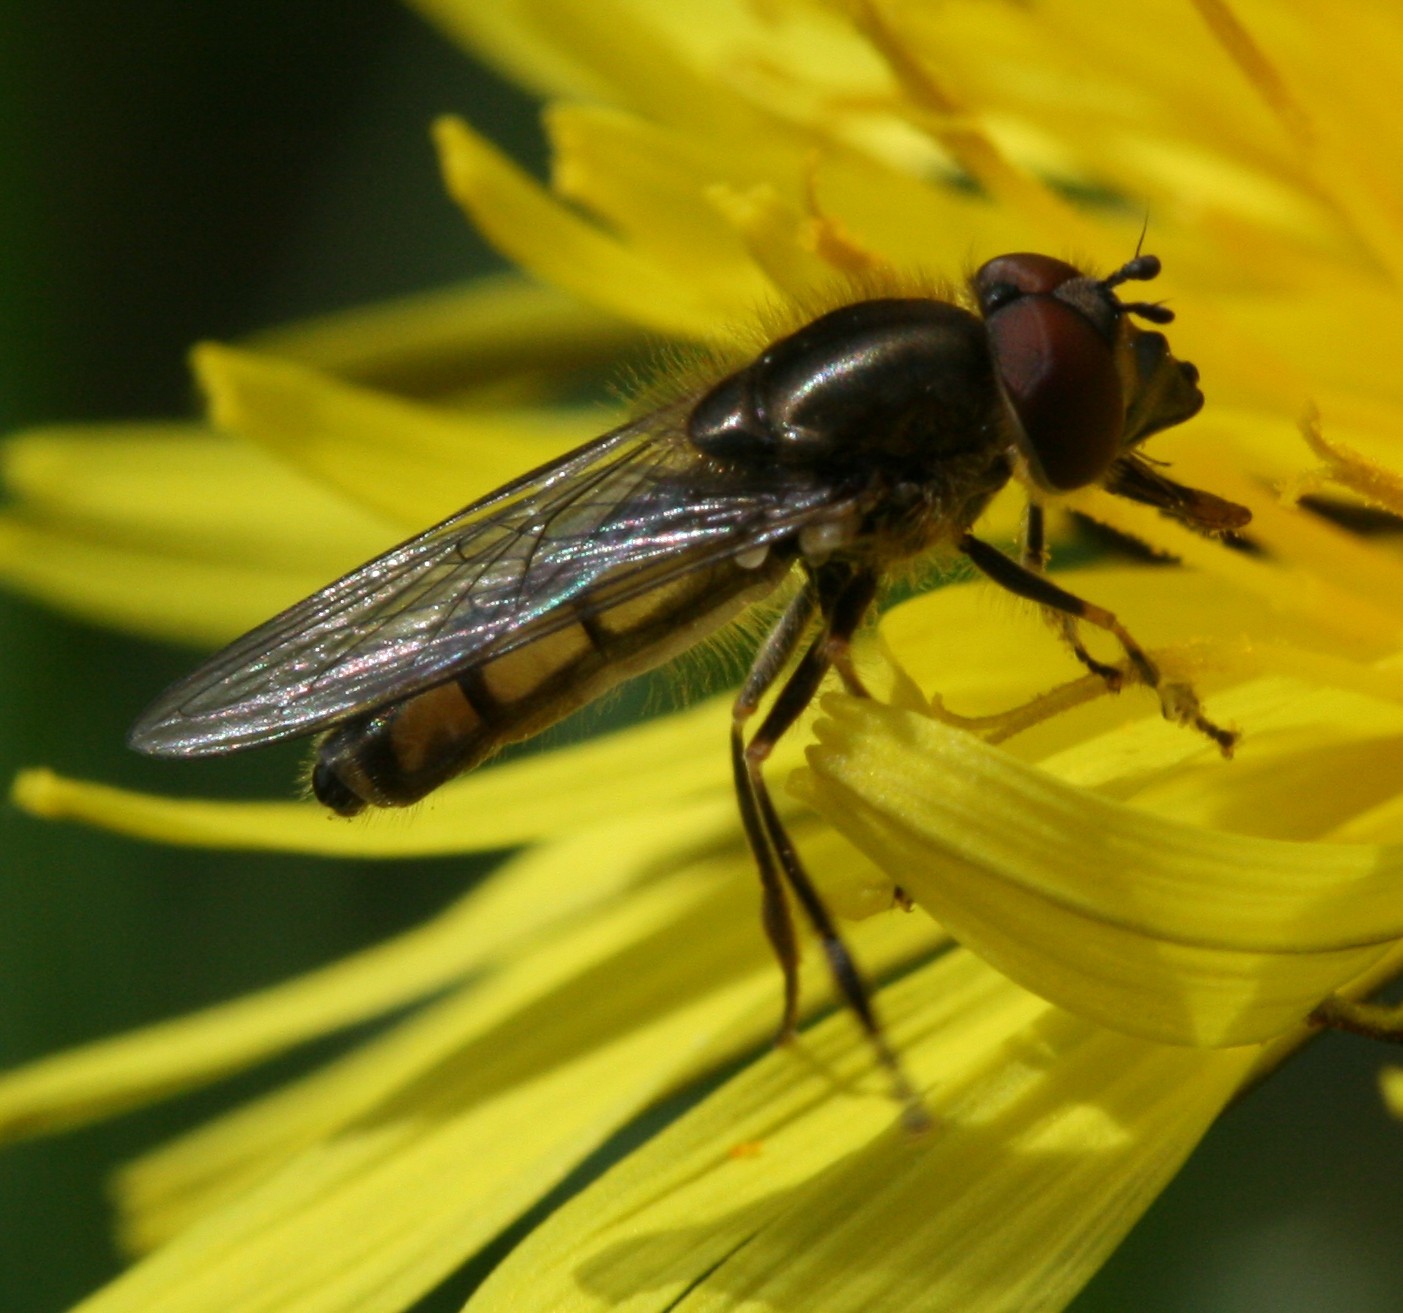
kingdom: Animalia
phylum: Arthropoda
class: Insecta
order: Diptera
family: Syrphidae
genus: Platycheirus
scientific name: Platycheirus manicatus
